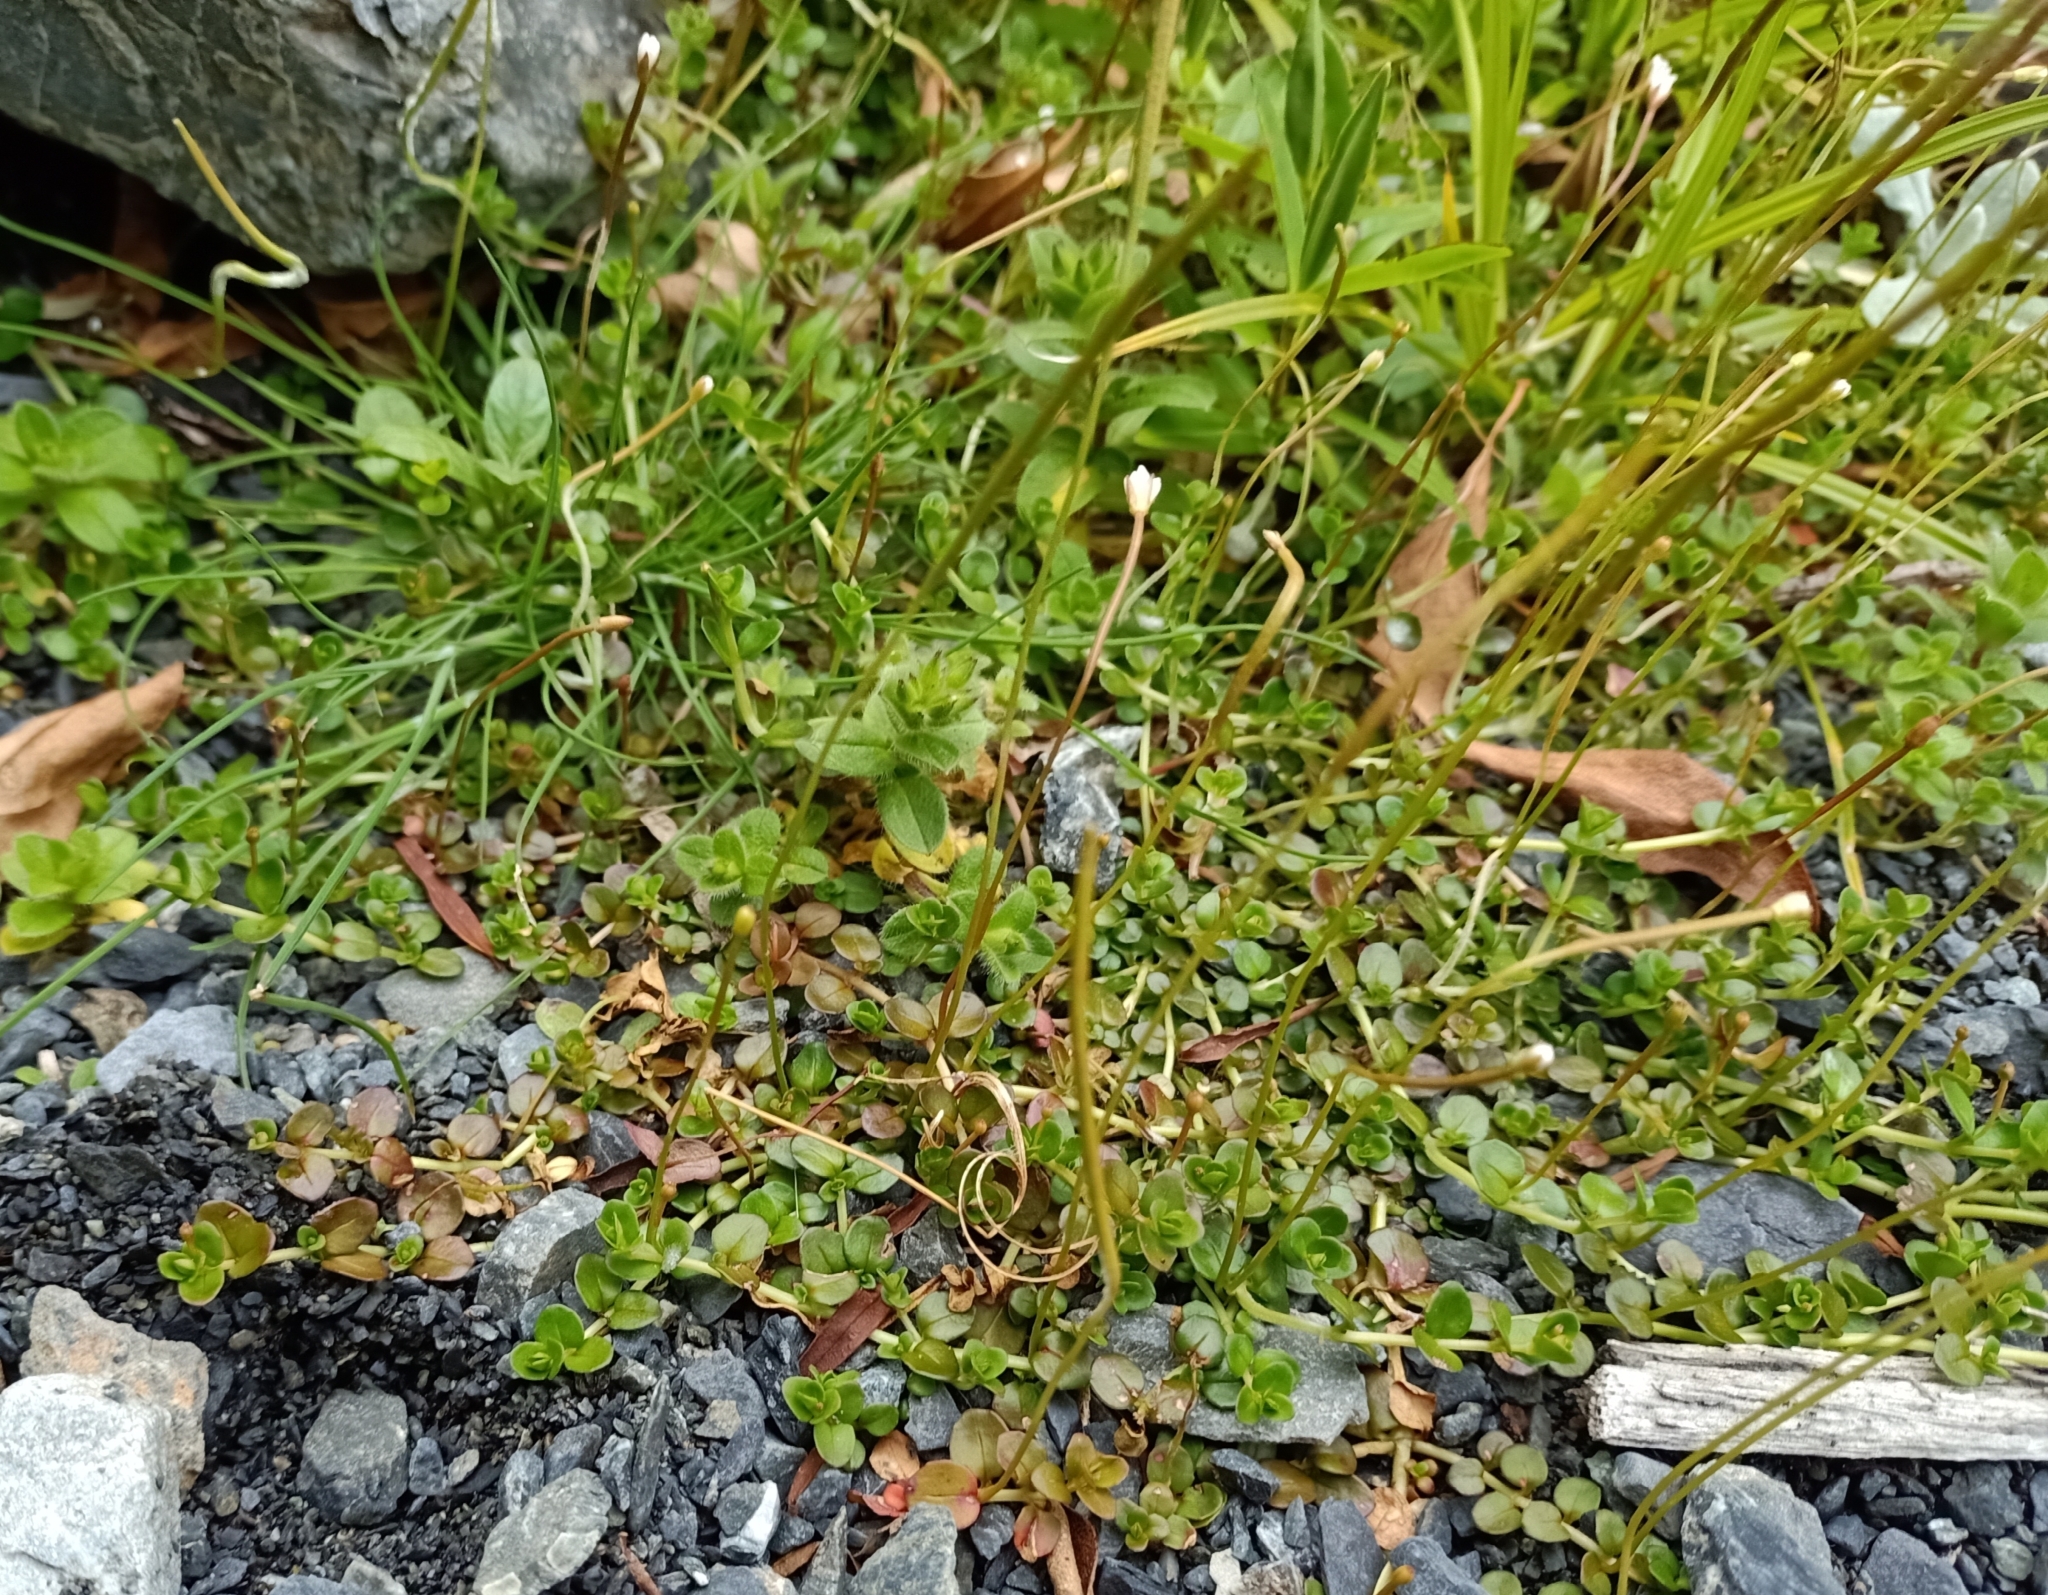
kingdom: Plantae
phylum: Tracheophyta
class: Magnoliopsida
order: Myrtales
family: Onagraceae
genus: Epilobium
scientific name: Epilobium brunnescens
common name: New zealand willowherb
